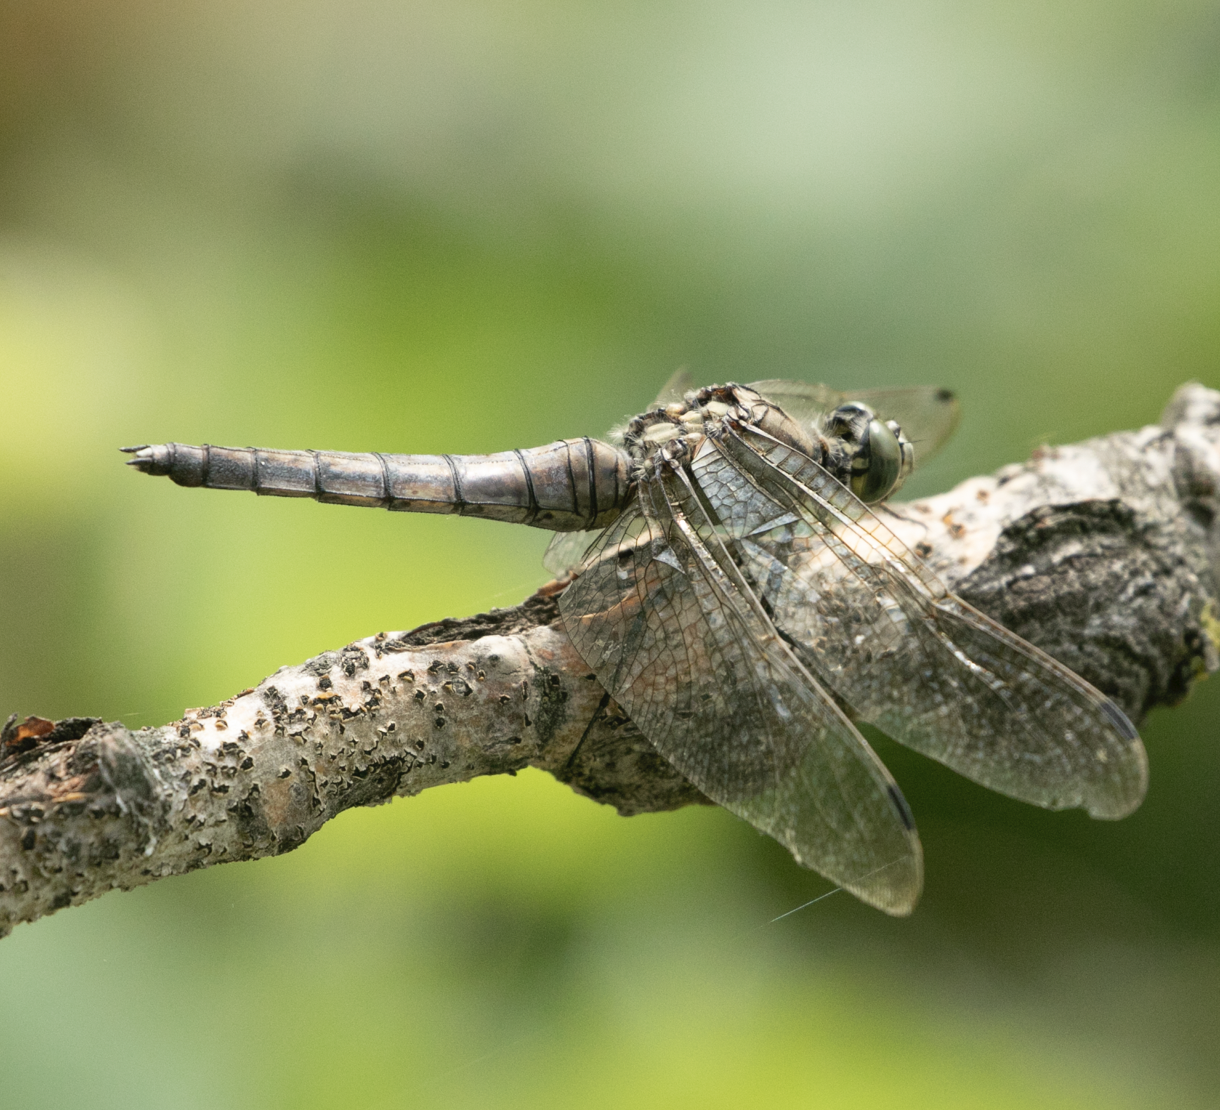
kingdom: Animalia
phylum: Arthropoda
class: Insecta
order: Odonata
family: Libellulidae
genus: Orthetrum
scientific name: Orthetrum cancellatum
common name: Black-tailed skimmer
